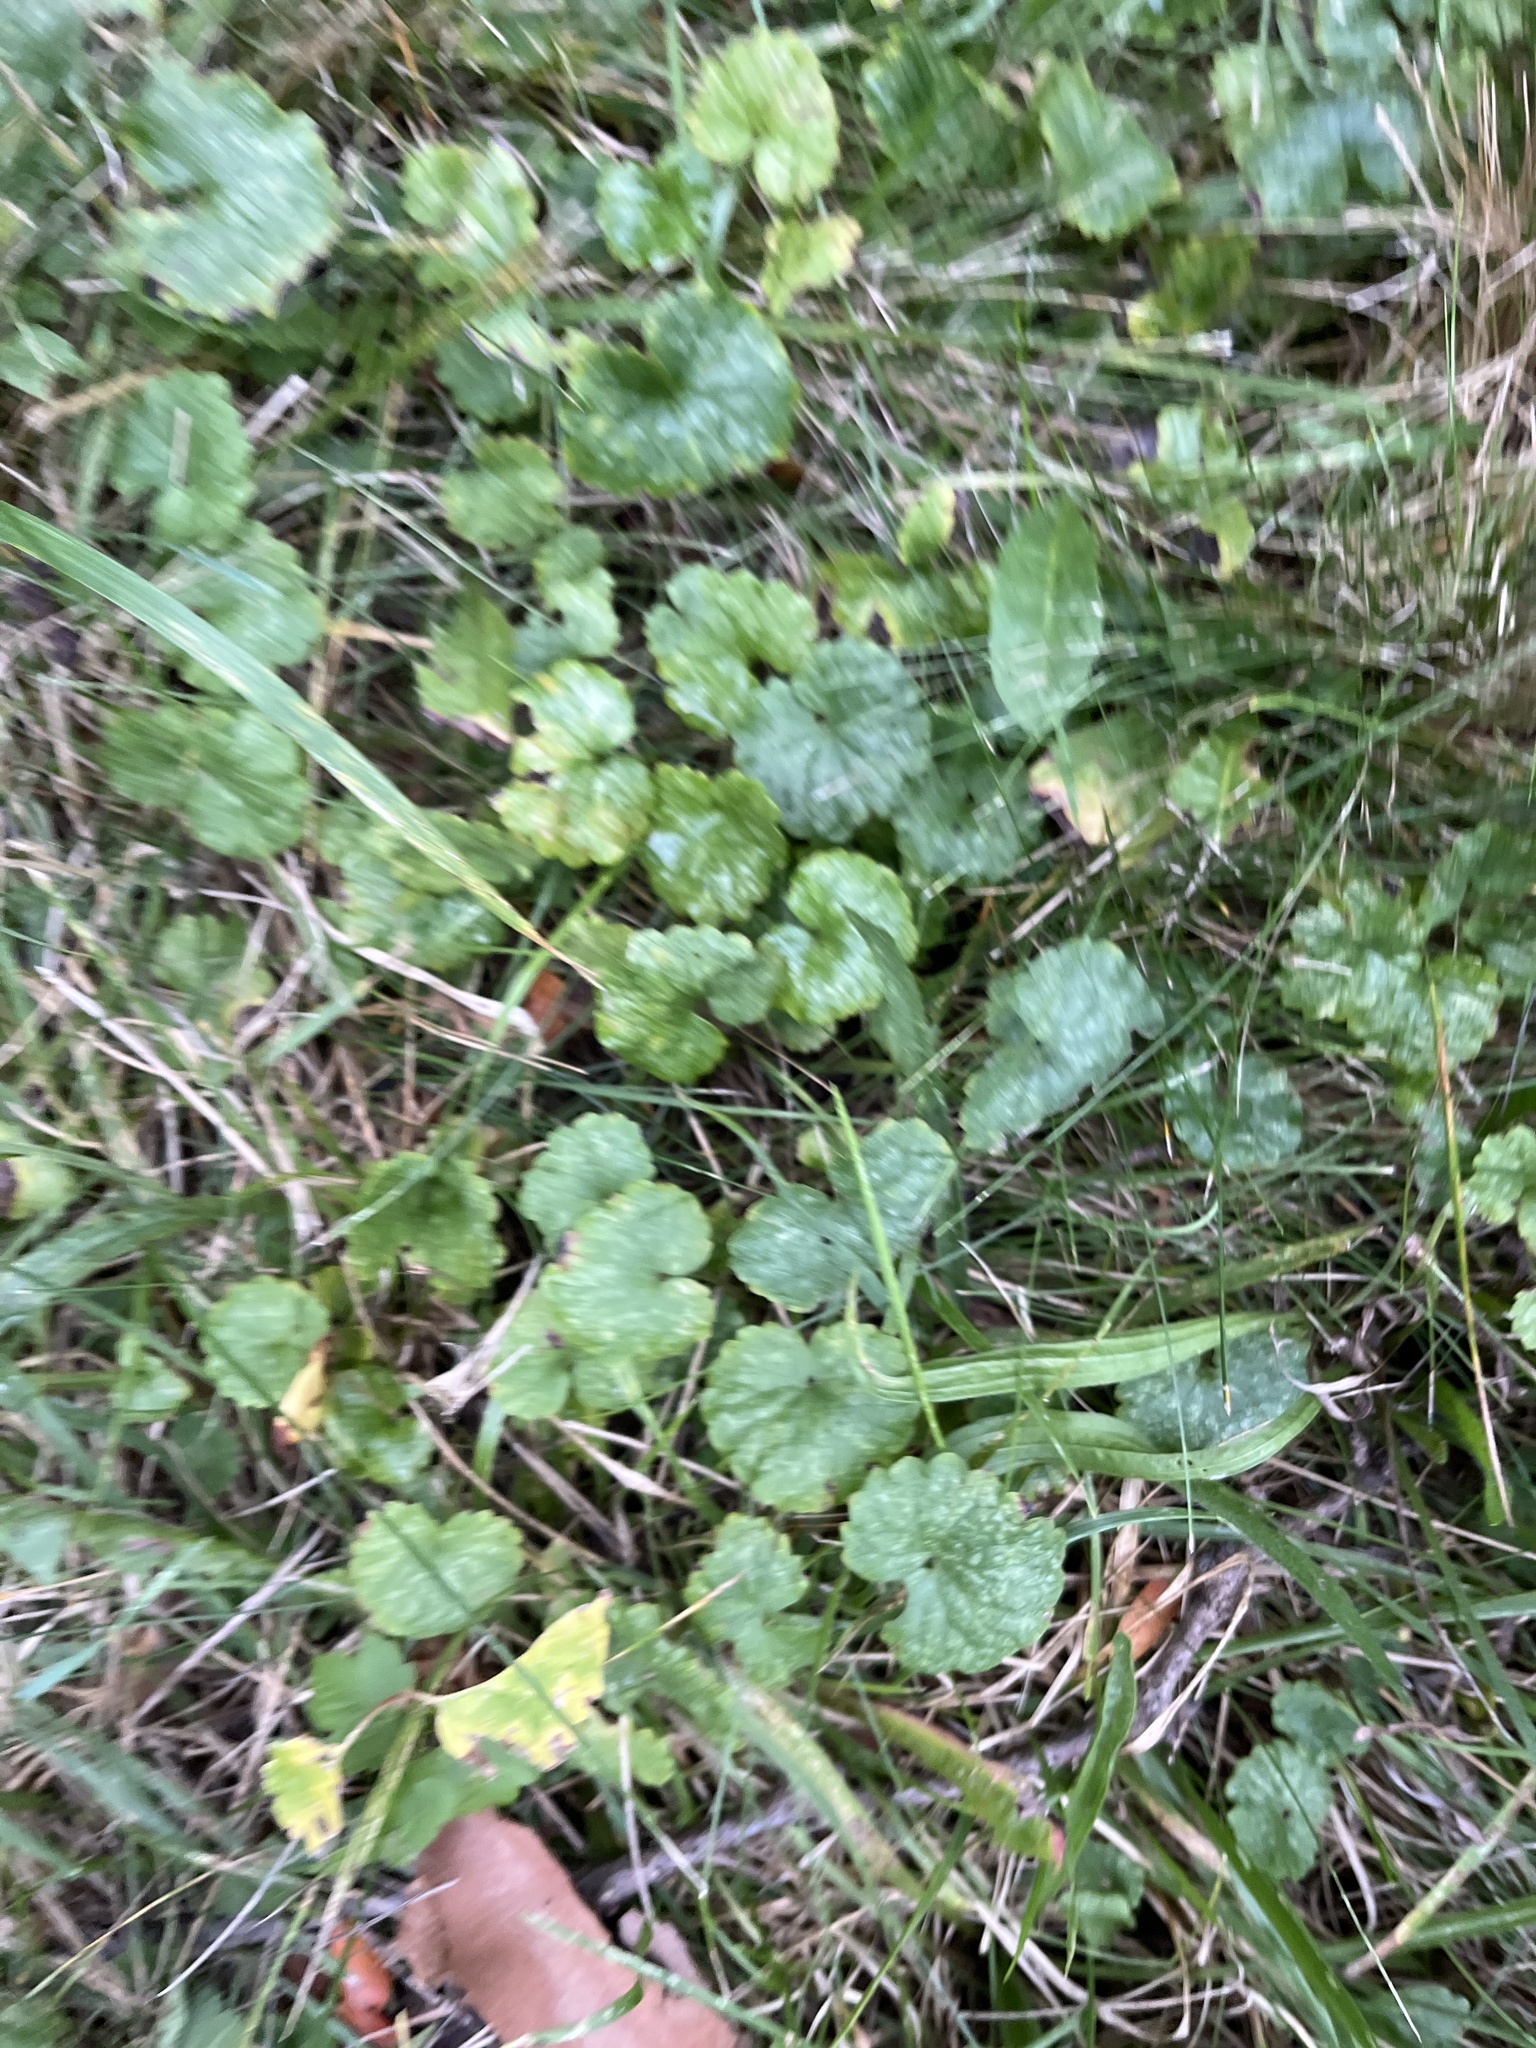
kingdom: Plantae
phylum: Tracheophyta
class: Magnoliopsida
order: Lamiales
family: Lamiaceae
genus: Glechoma
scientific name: Glechoma hederacea
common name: Ground ivy
